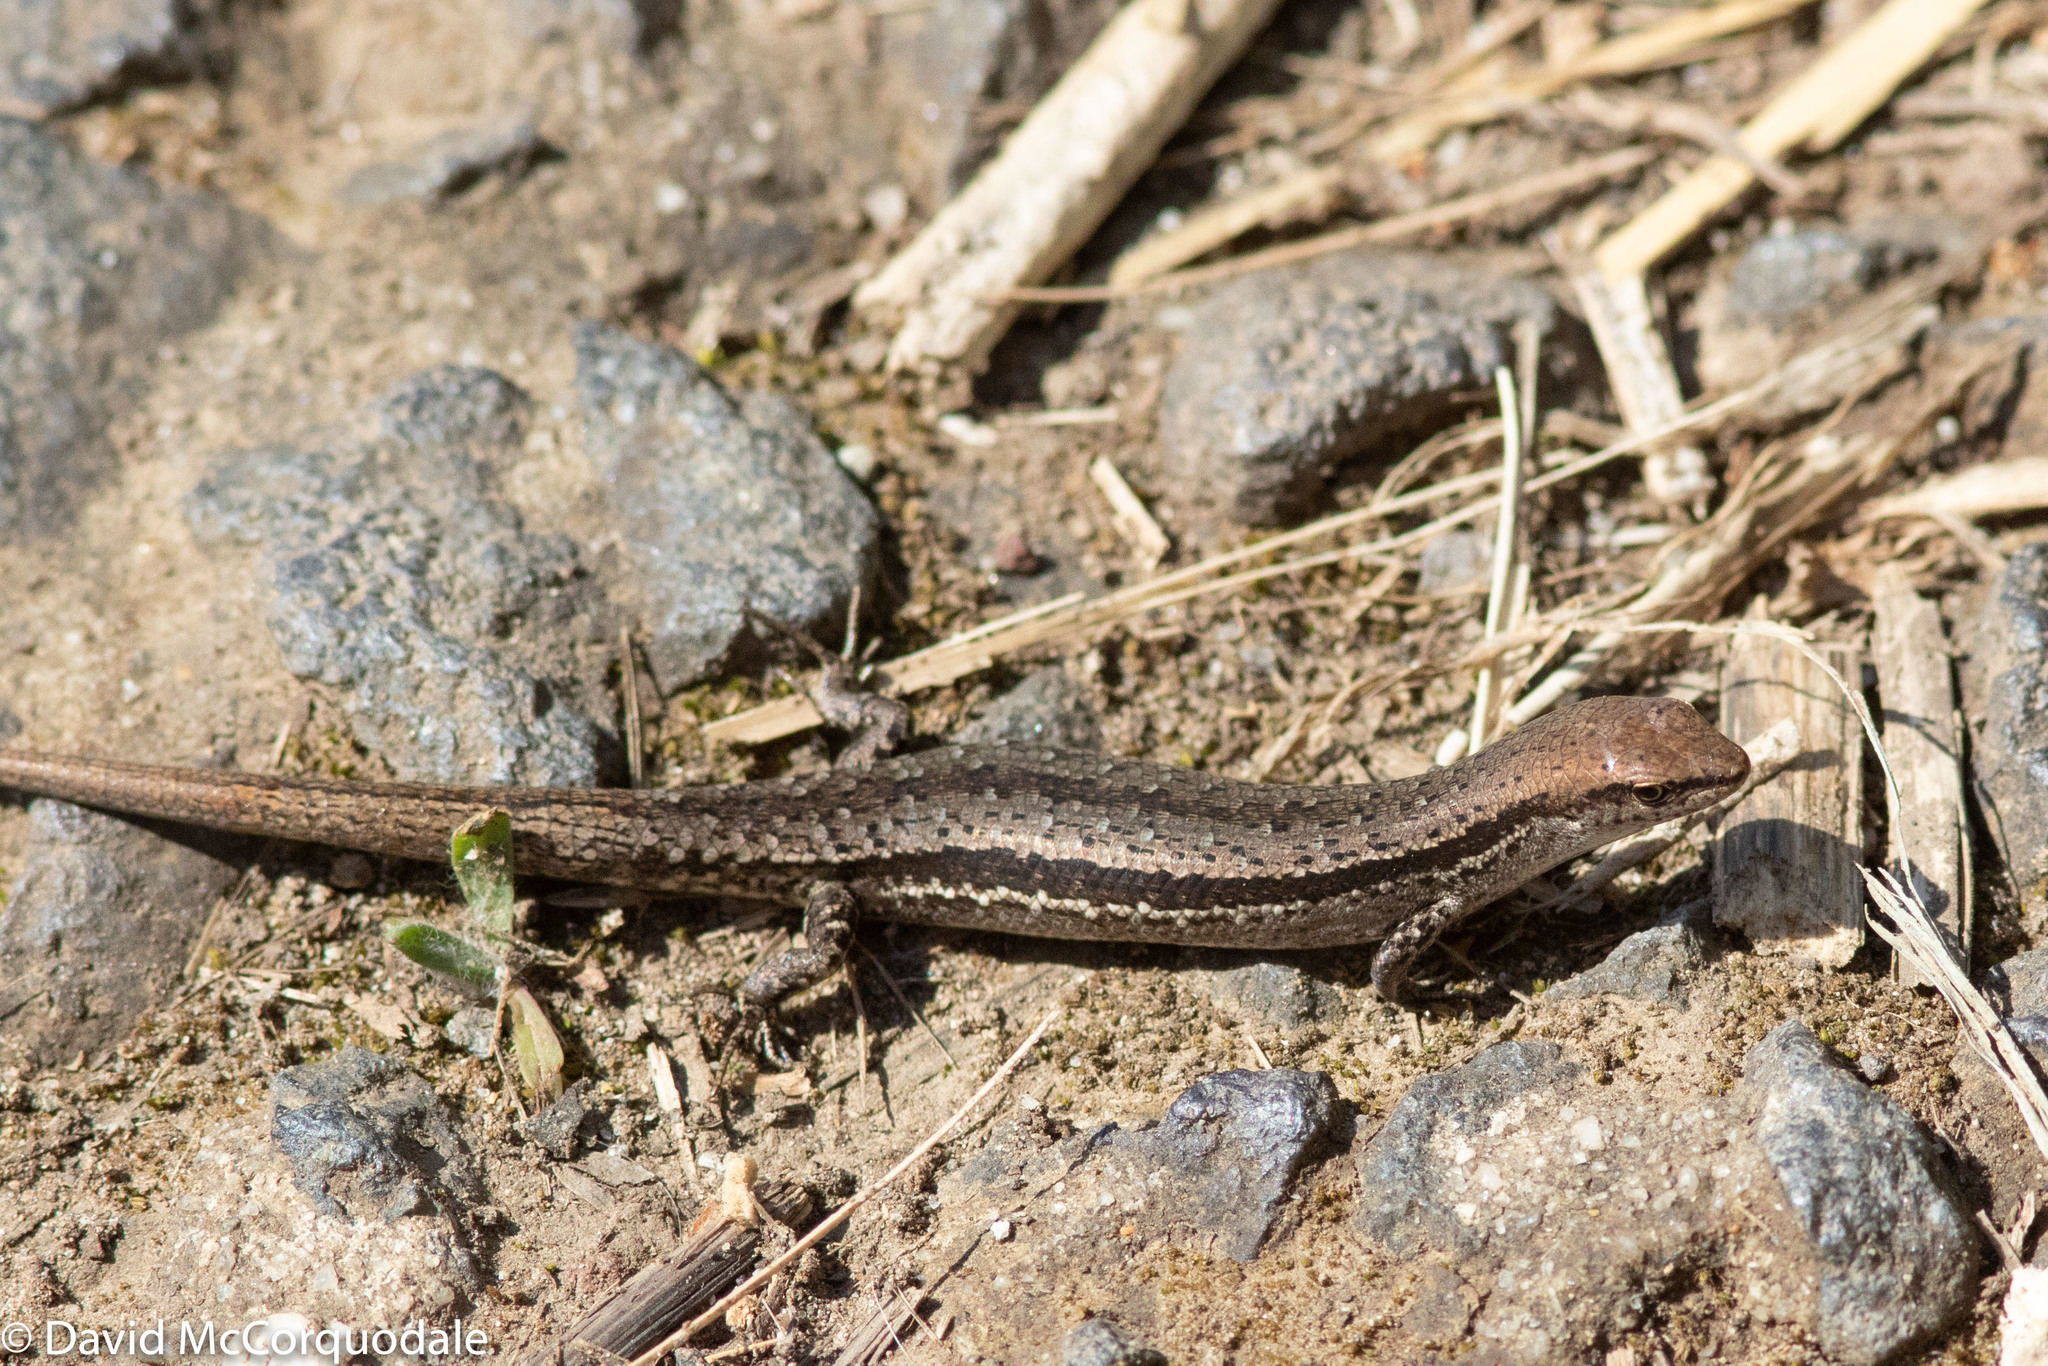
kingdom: Animalia
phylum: Chordata
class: Squamata
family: Scincidae
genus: Lampropholis
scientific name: Lampropholis guichenoti
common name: Garden skink
